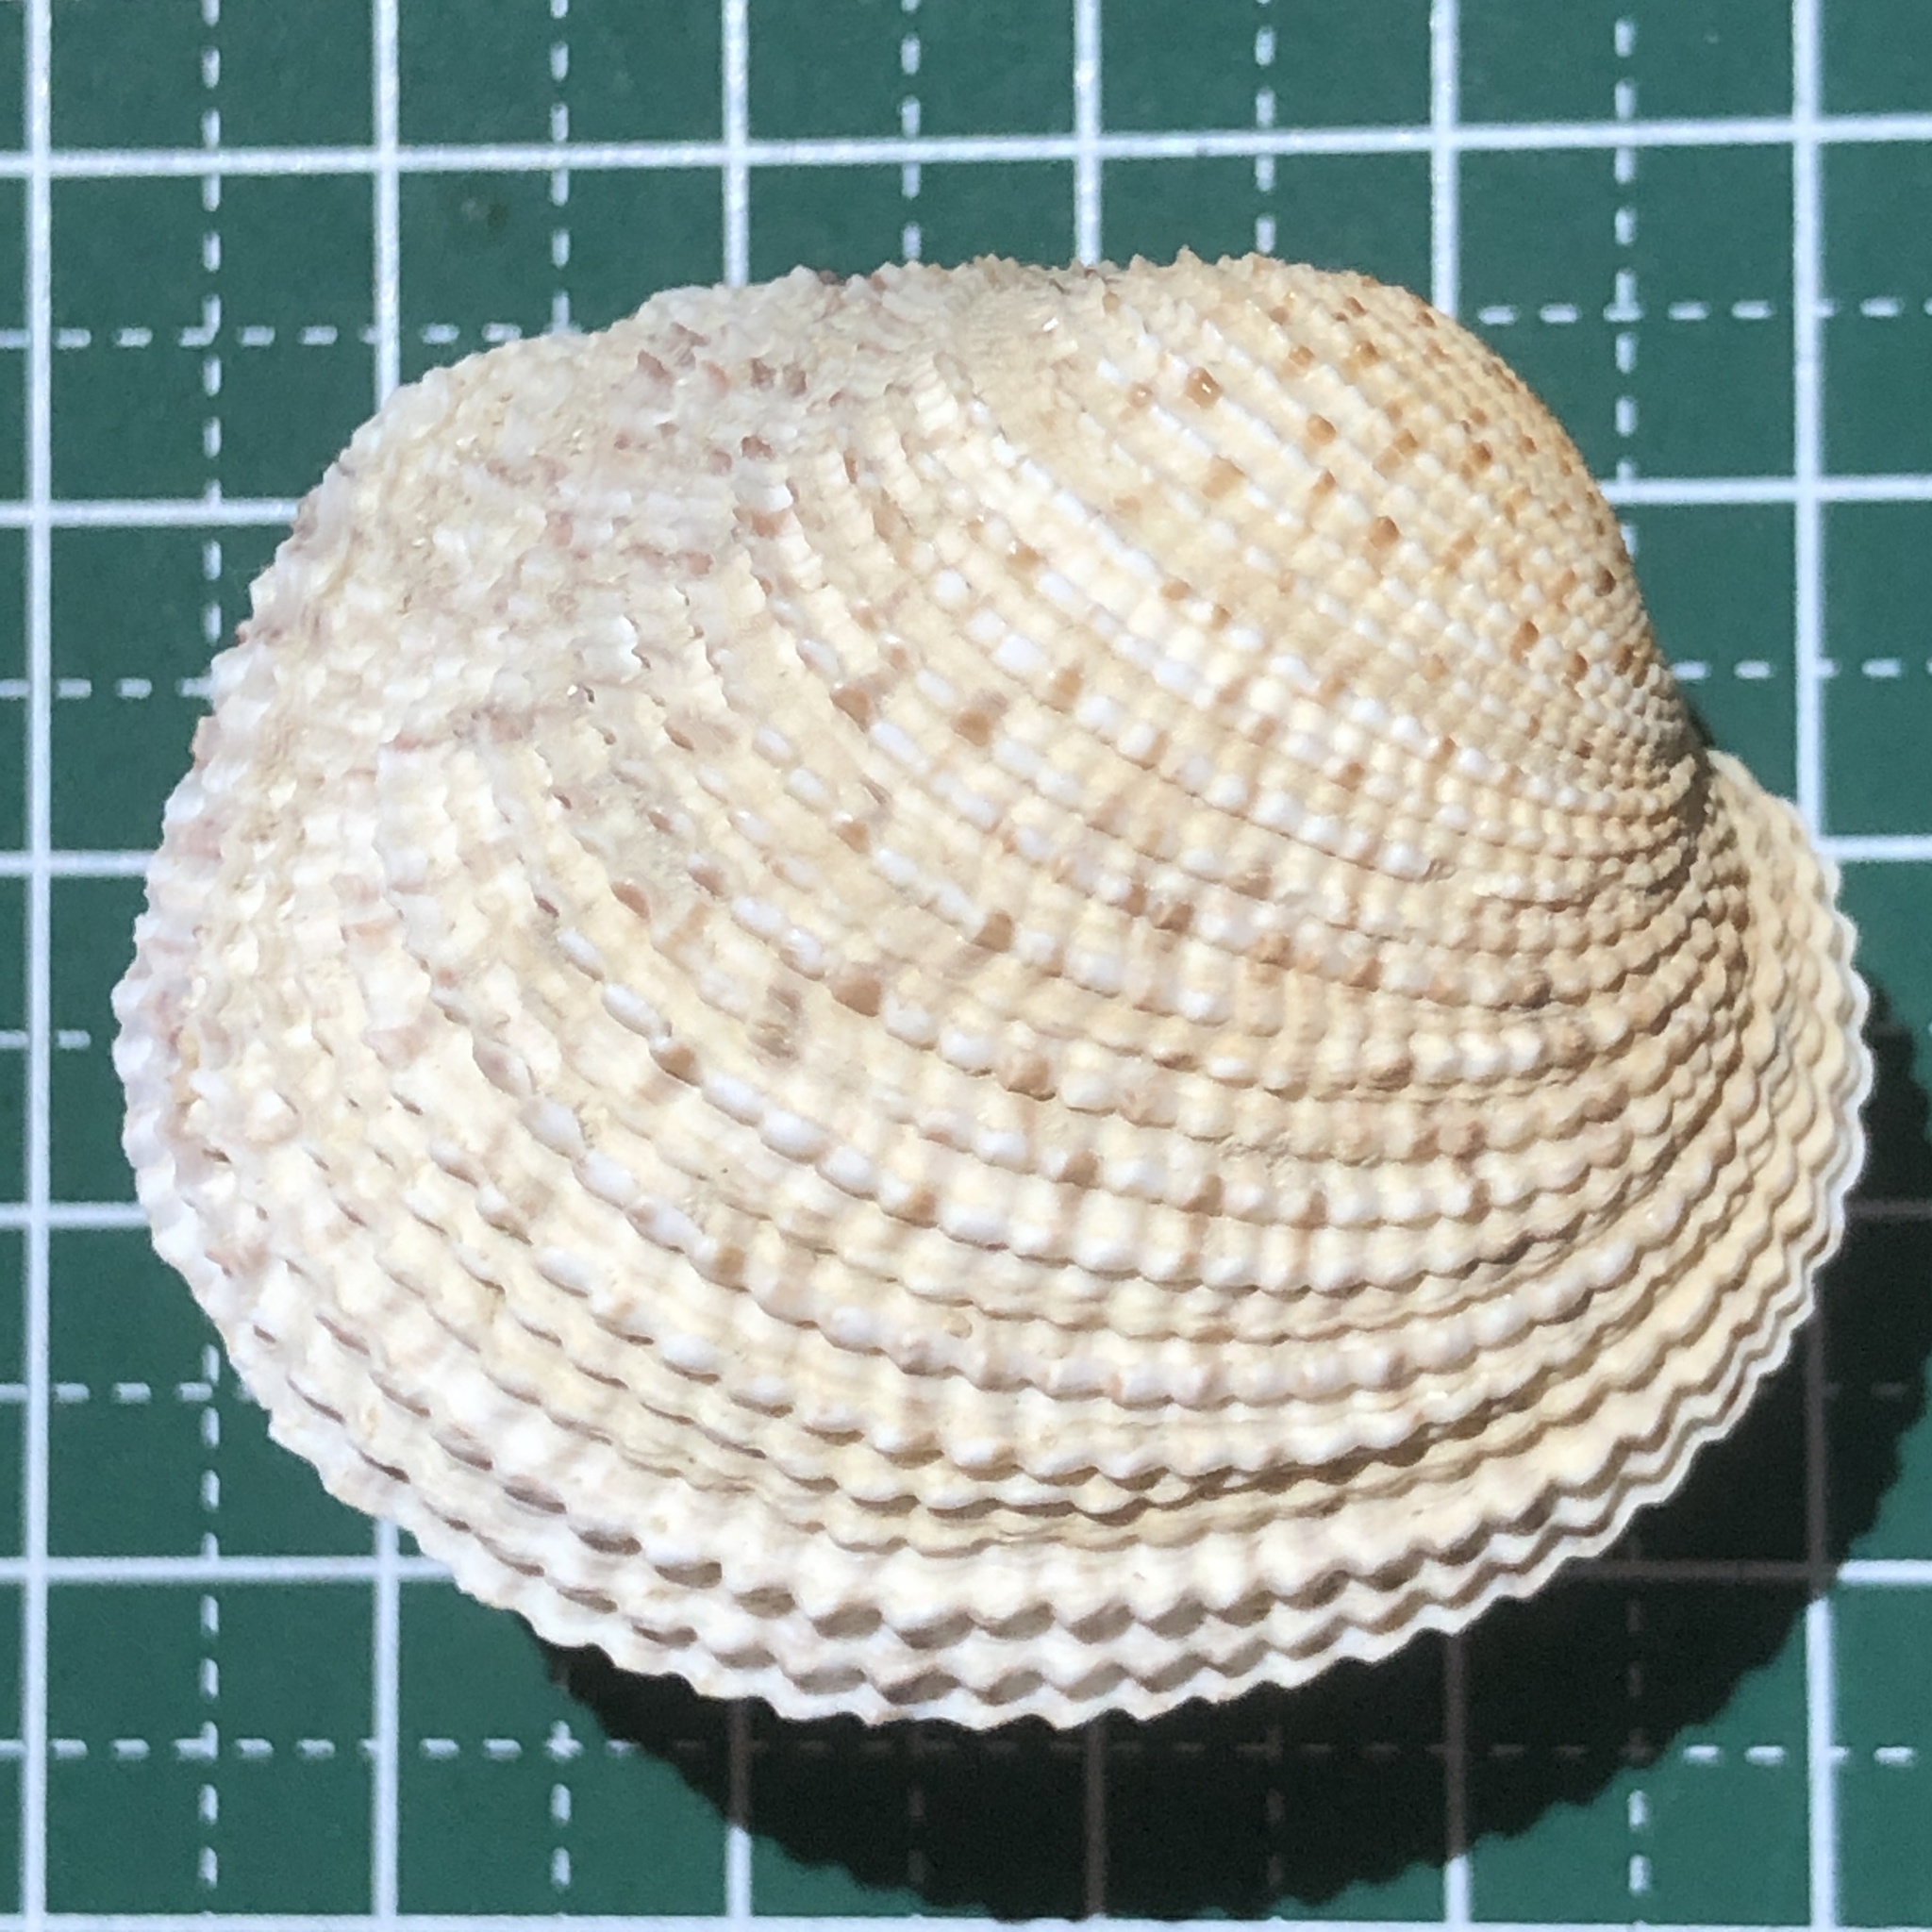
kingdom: Animalia
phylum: Mollusca
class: Bivalvia
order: Venerida
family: Veneridae
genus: Antigona
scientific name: Antigona chemnitzii
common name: Chemnitz's venus
